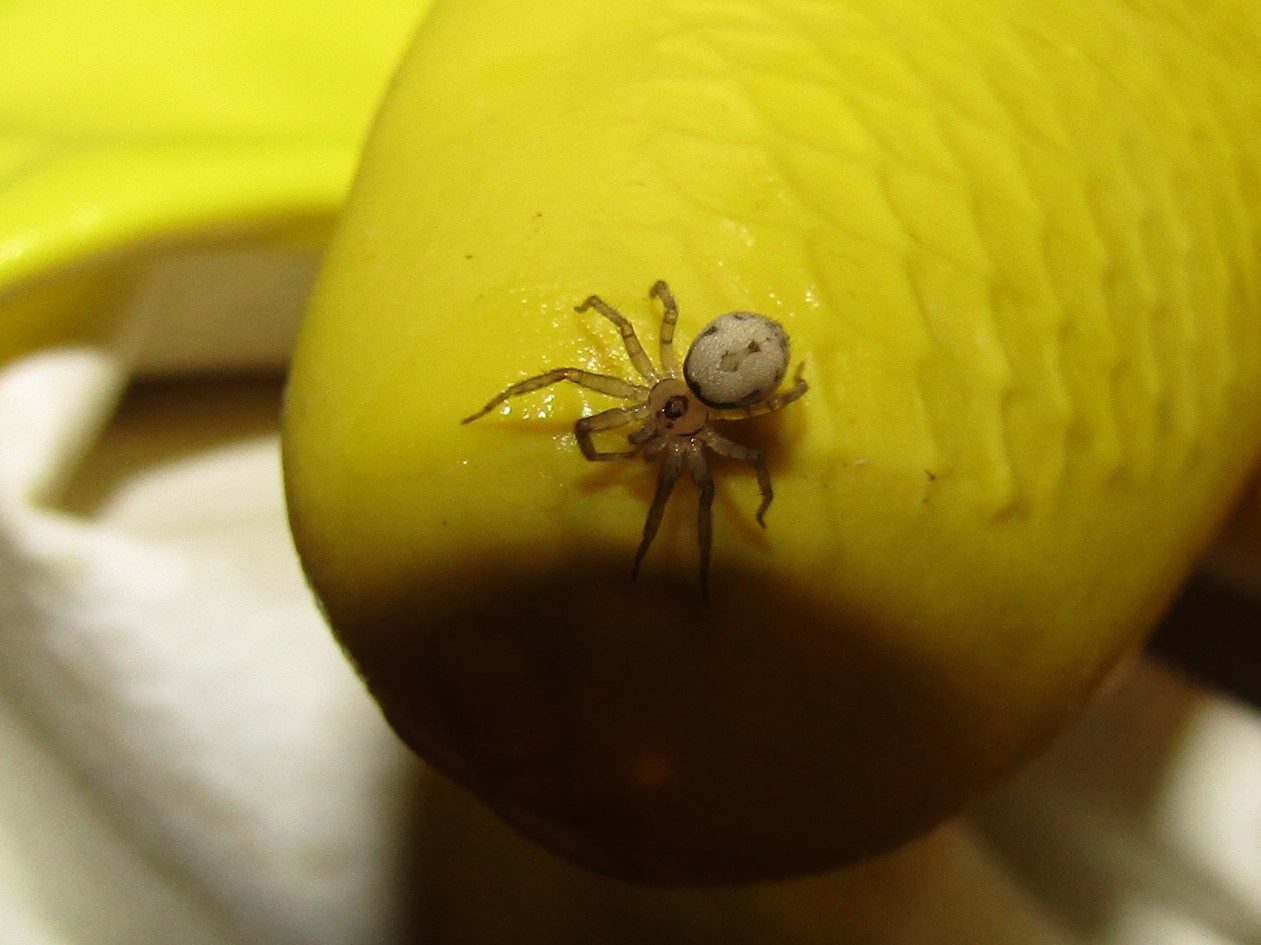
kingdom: Animalia
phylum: Arthropoda
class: Arachnida
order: Araneae
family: Oecobiidae
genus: Oecobius
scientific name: Oecobius navus
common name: Flatmesh weaver
